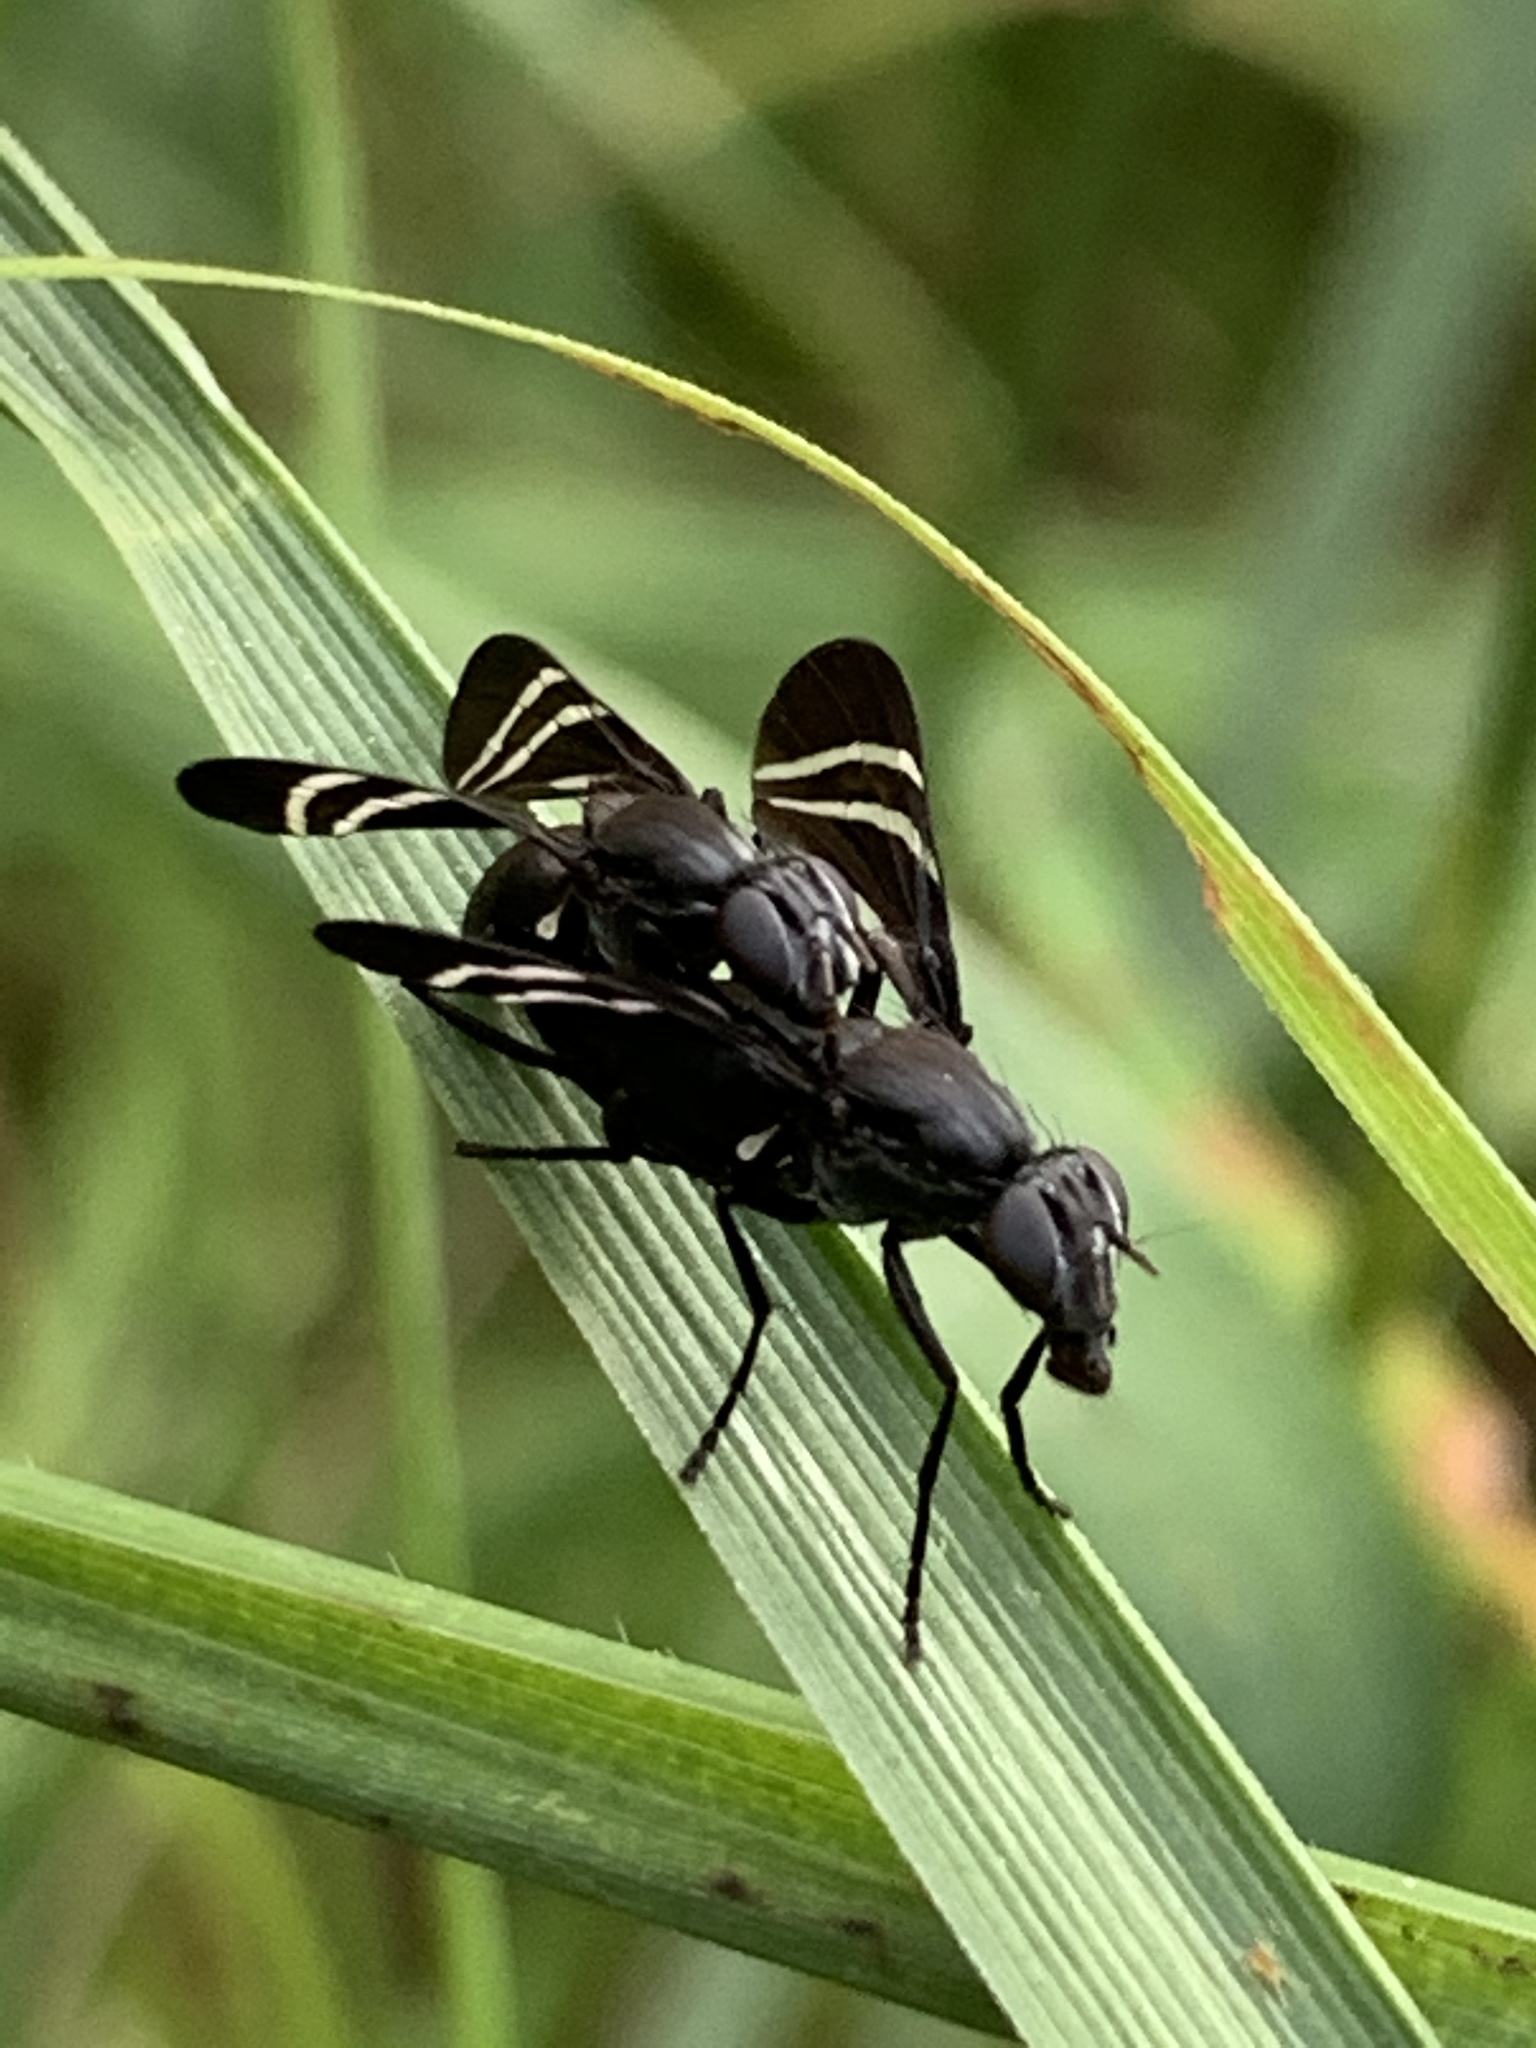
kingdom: Animalia
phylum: Arthropoda
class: Insecta
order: Diptera
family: Ulidiidae
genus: Tritoxa
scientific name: Tritoxa flexa
